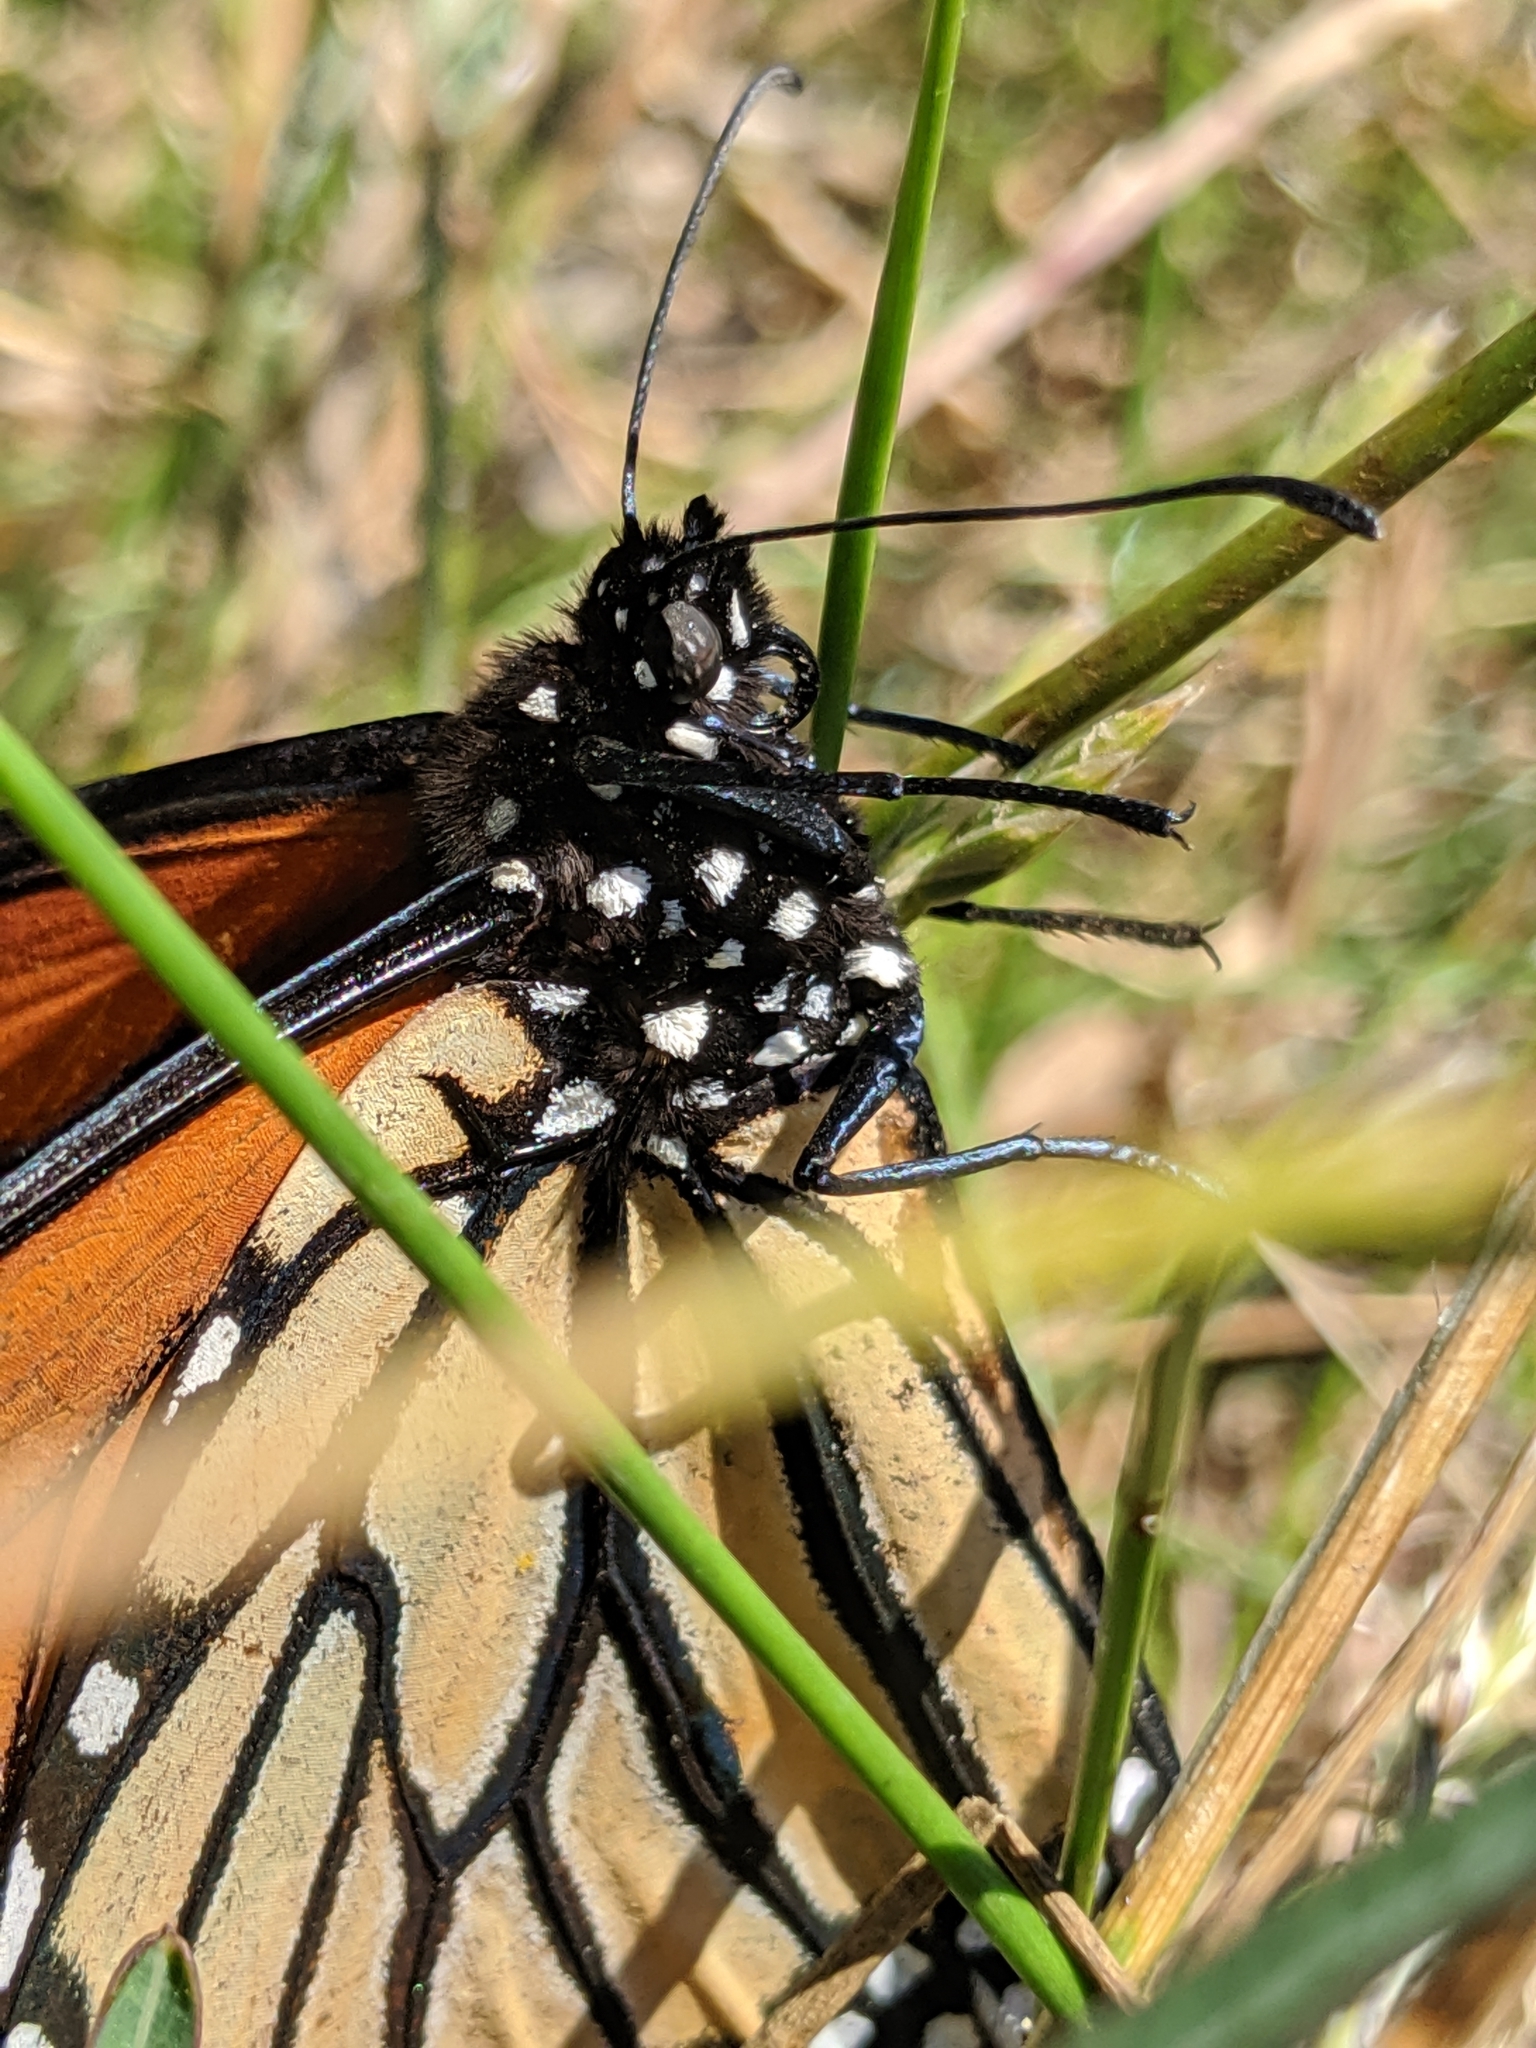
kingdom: Animalia
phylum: Arthropoda
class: Insecta
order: Lepidoptera
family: Nymphalidae
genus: Danaus
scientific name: Danaus plexippus
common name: Monarch
